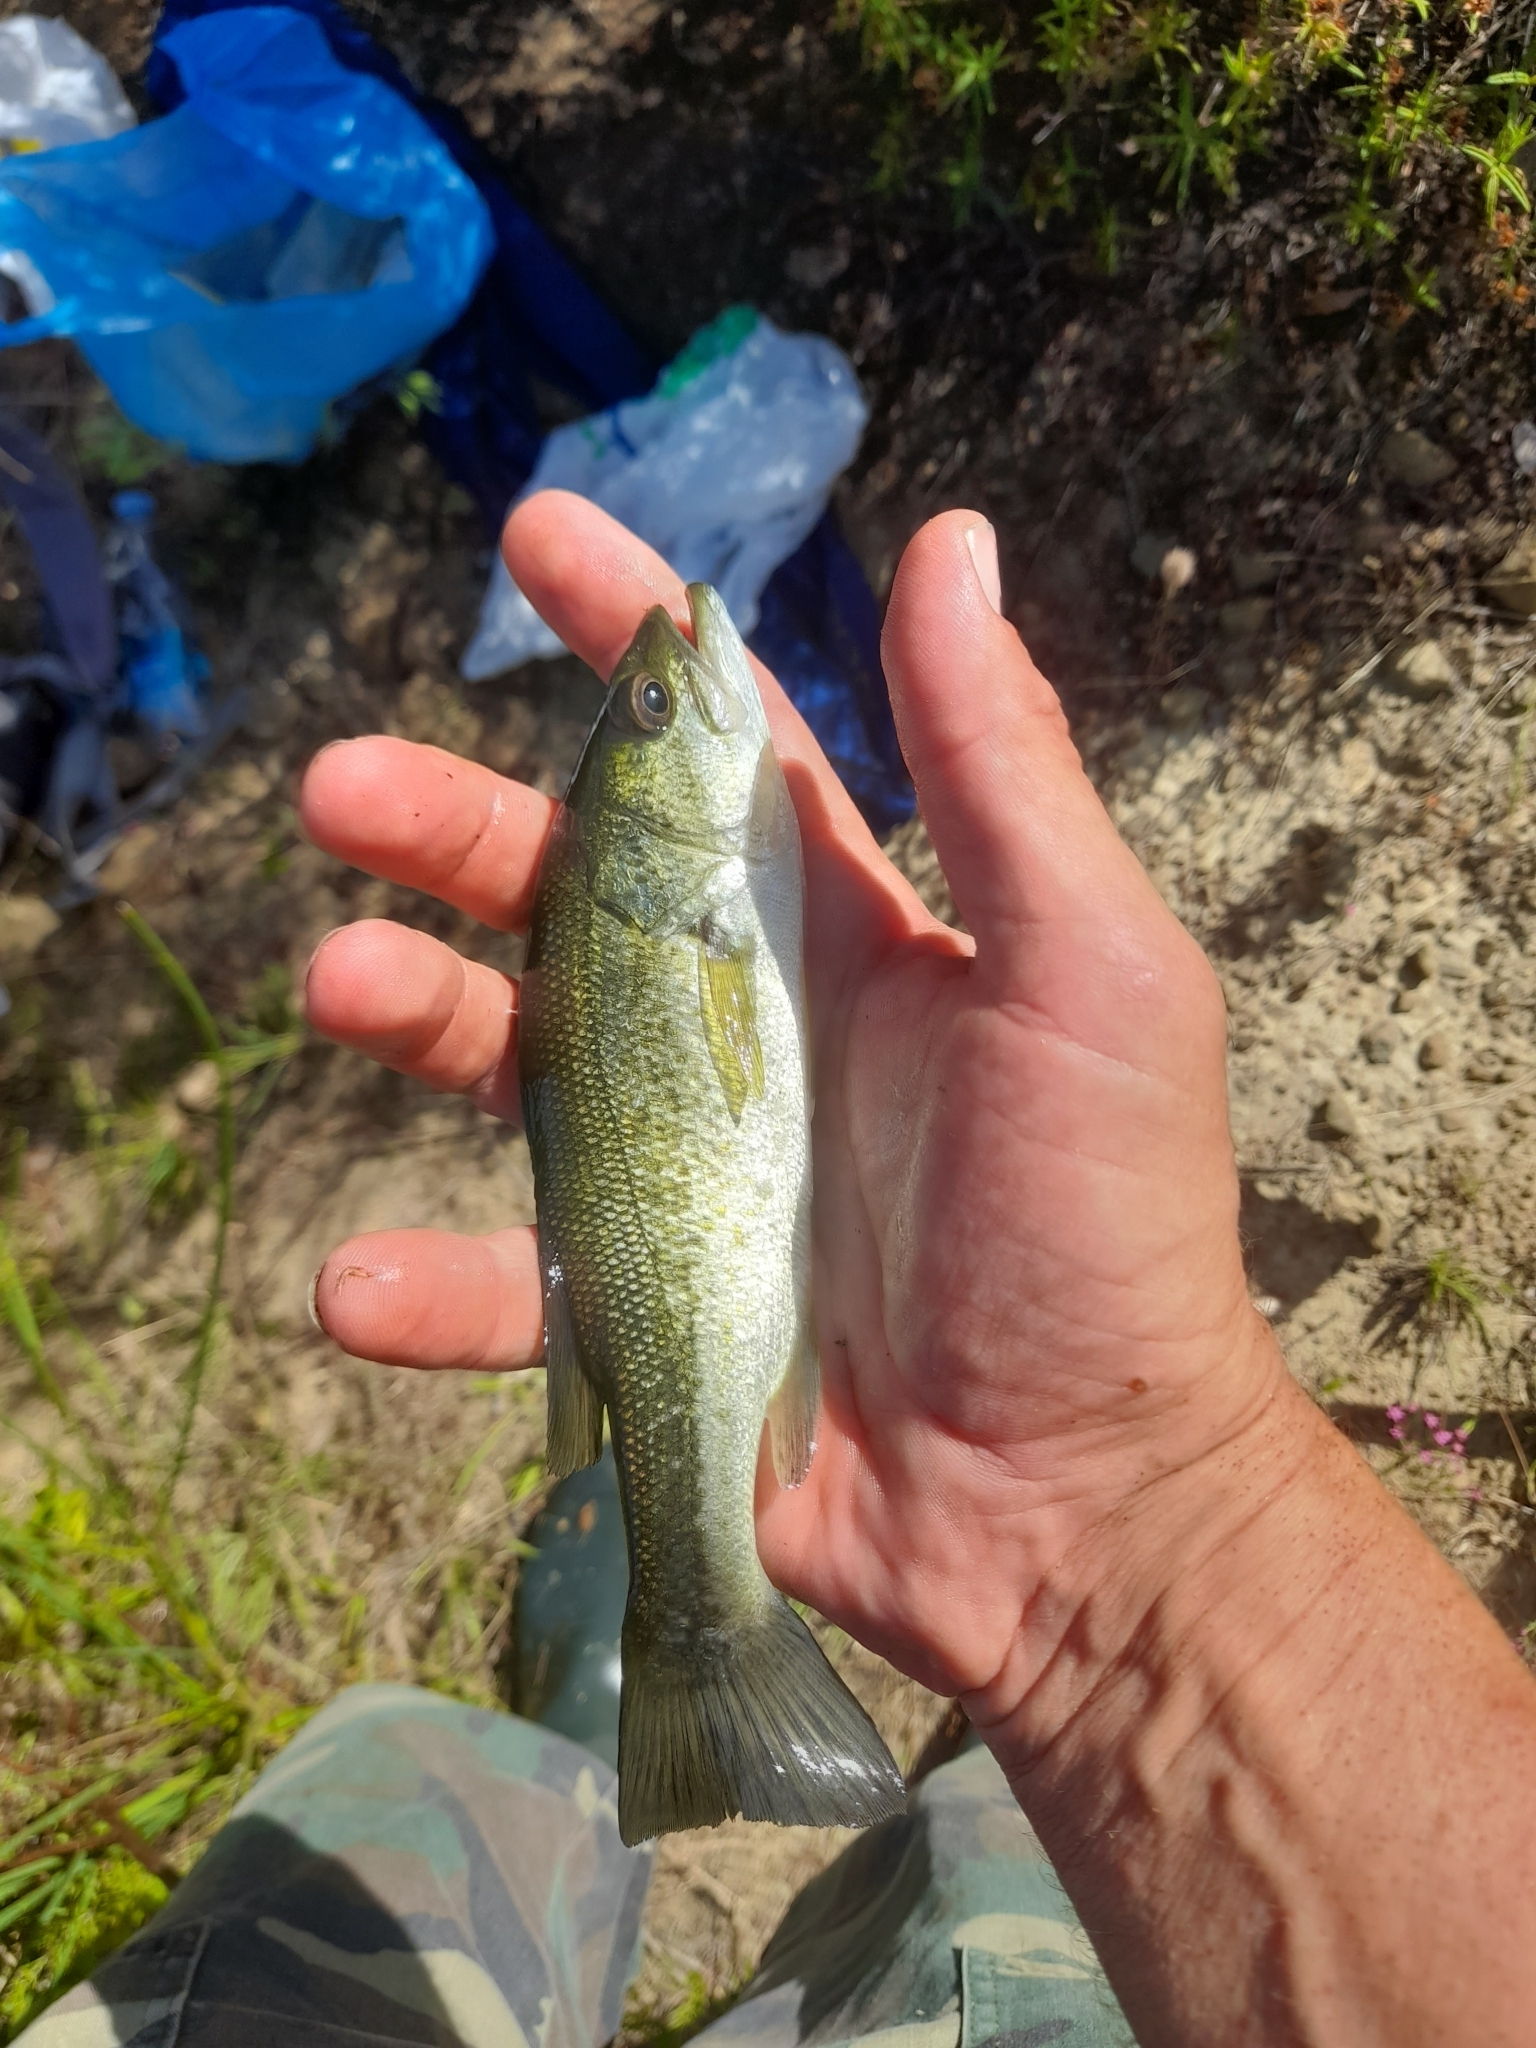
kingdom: Animalia
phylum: Chordata
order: Perciformes
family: Centrarchidae
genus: Micropterus
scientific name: Micropterus
